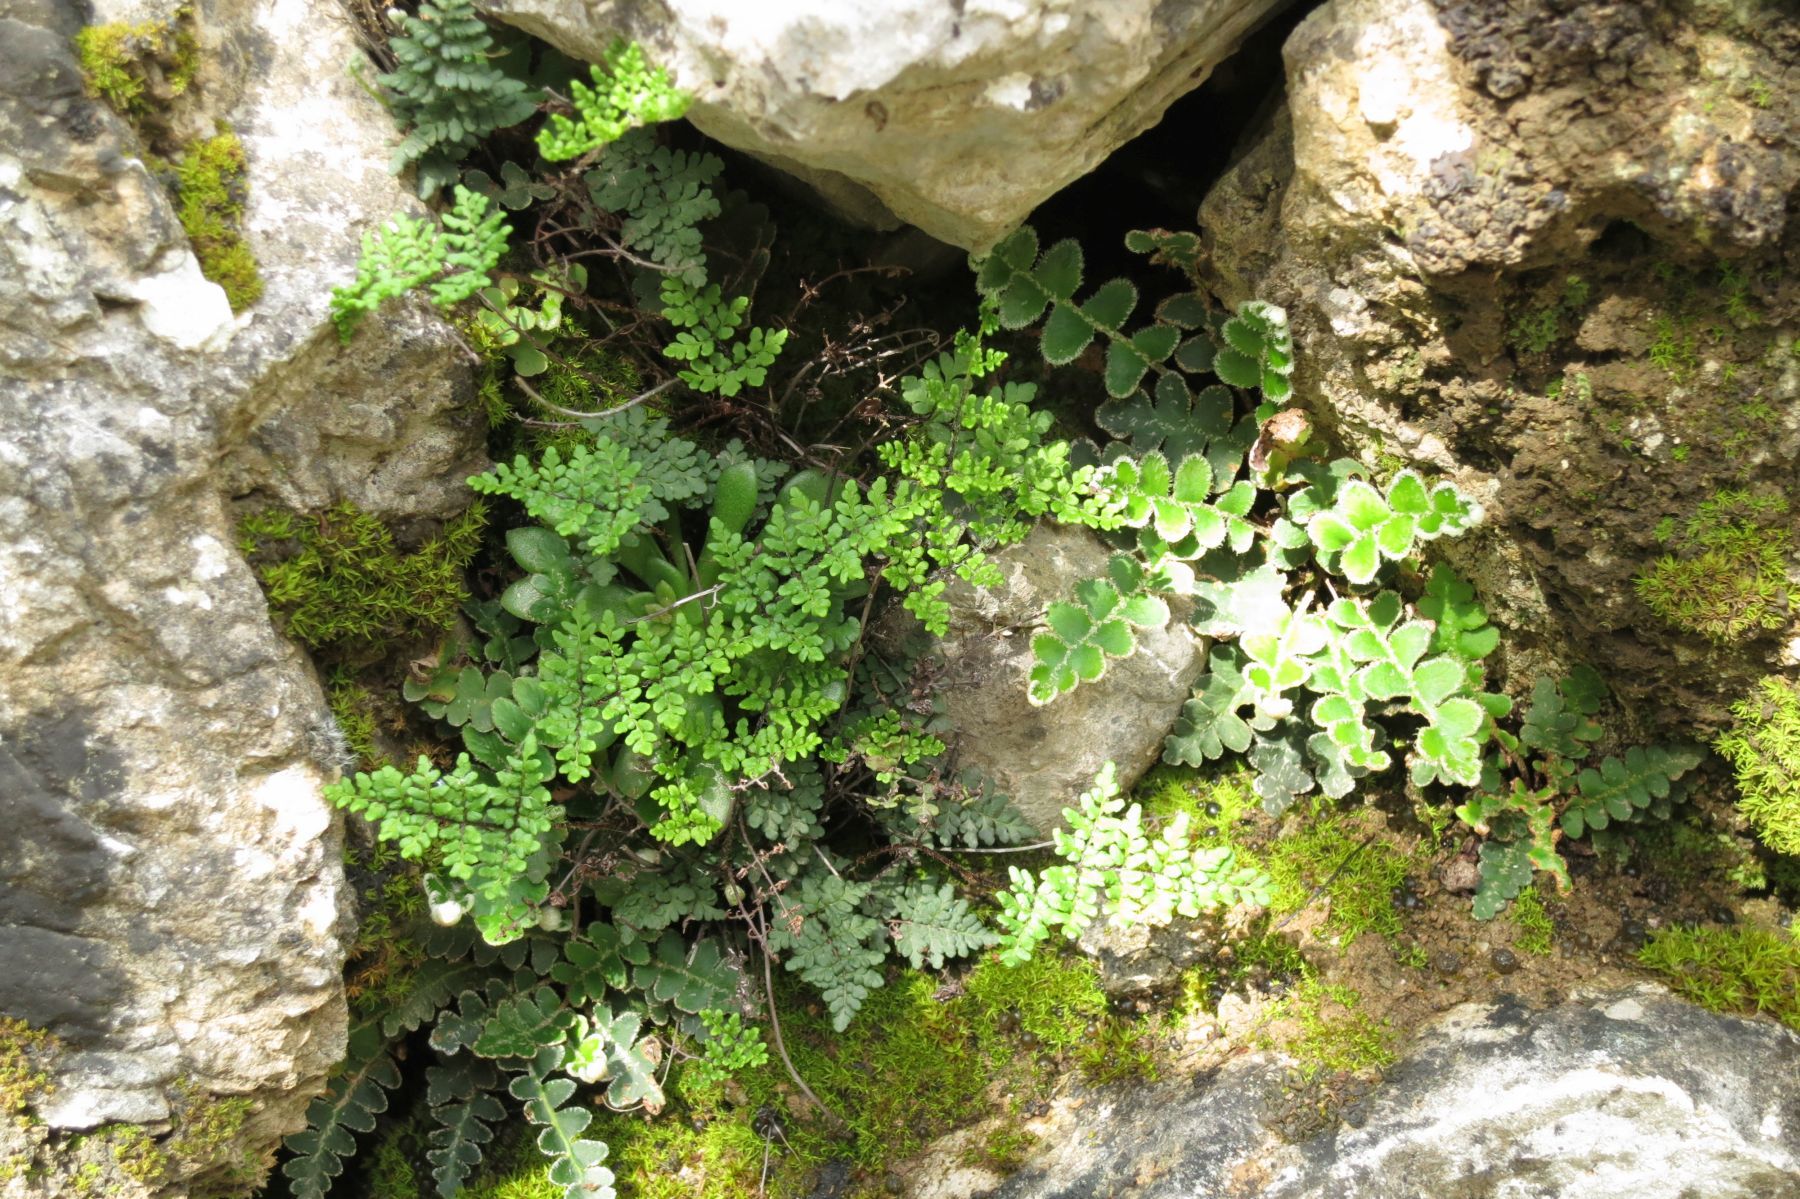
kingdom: Plantae
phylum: Tracheophyta
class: Polypodiopsida
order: Polypodiales
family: Pteridaceae
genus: Oeosporangium
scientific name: Oeosporangium pteridioides
